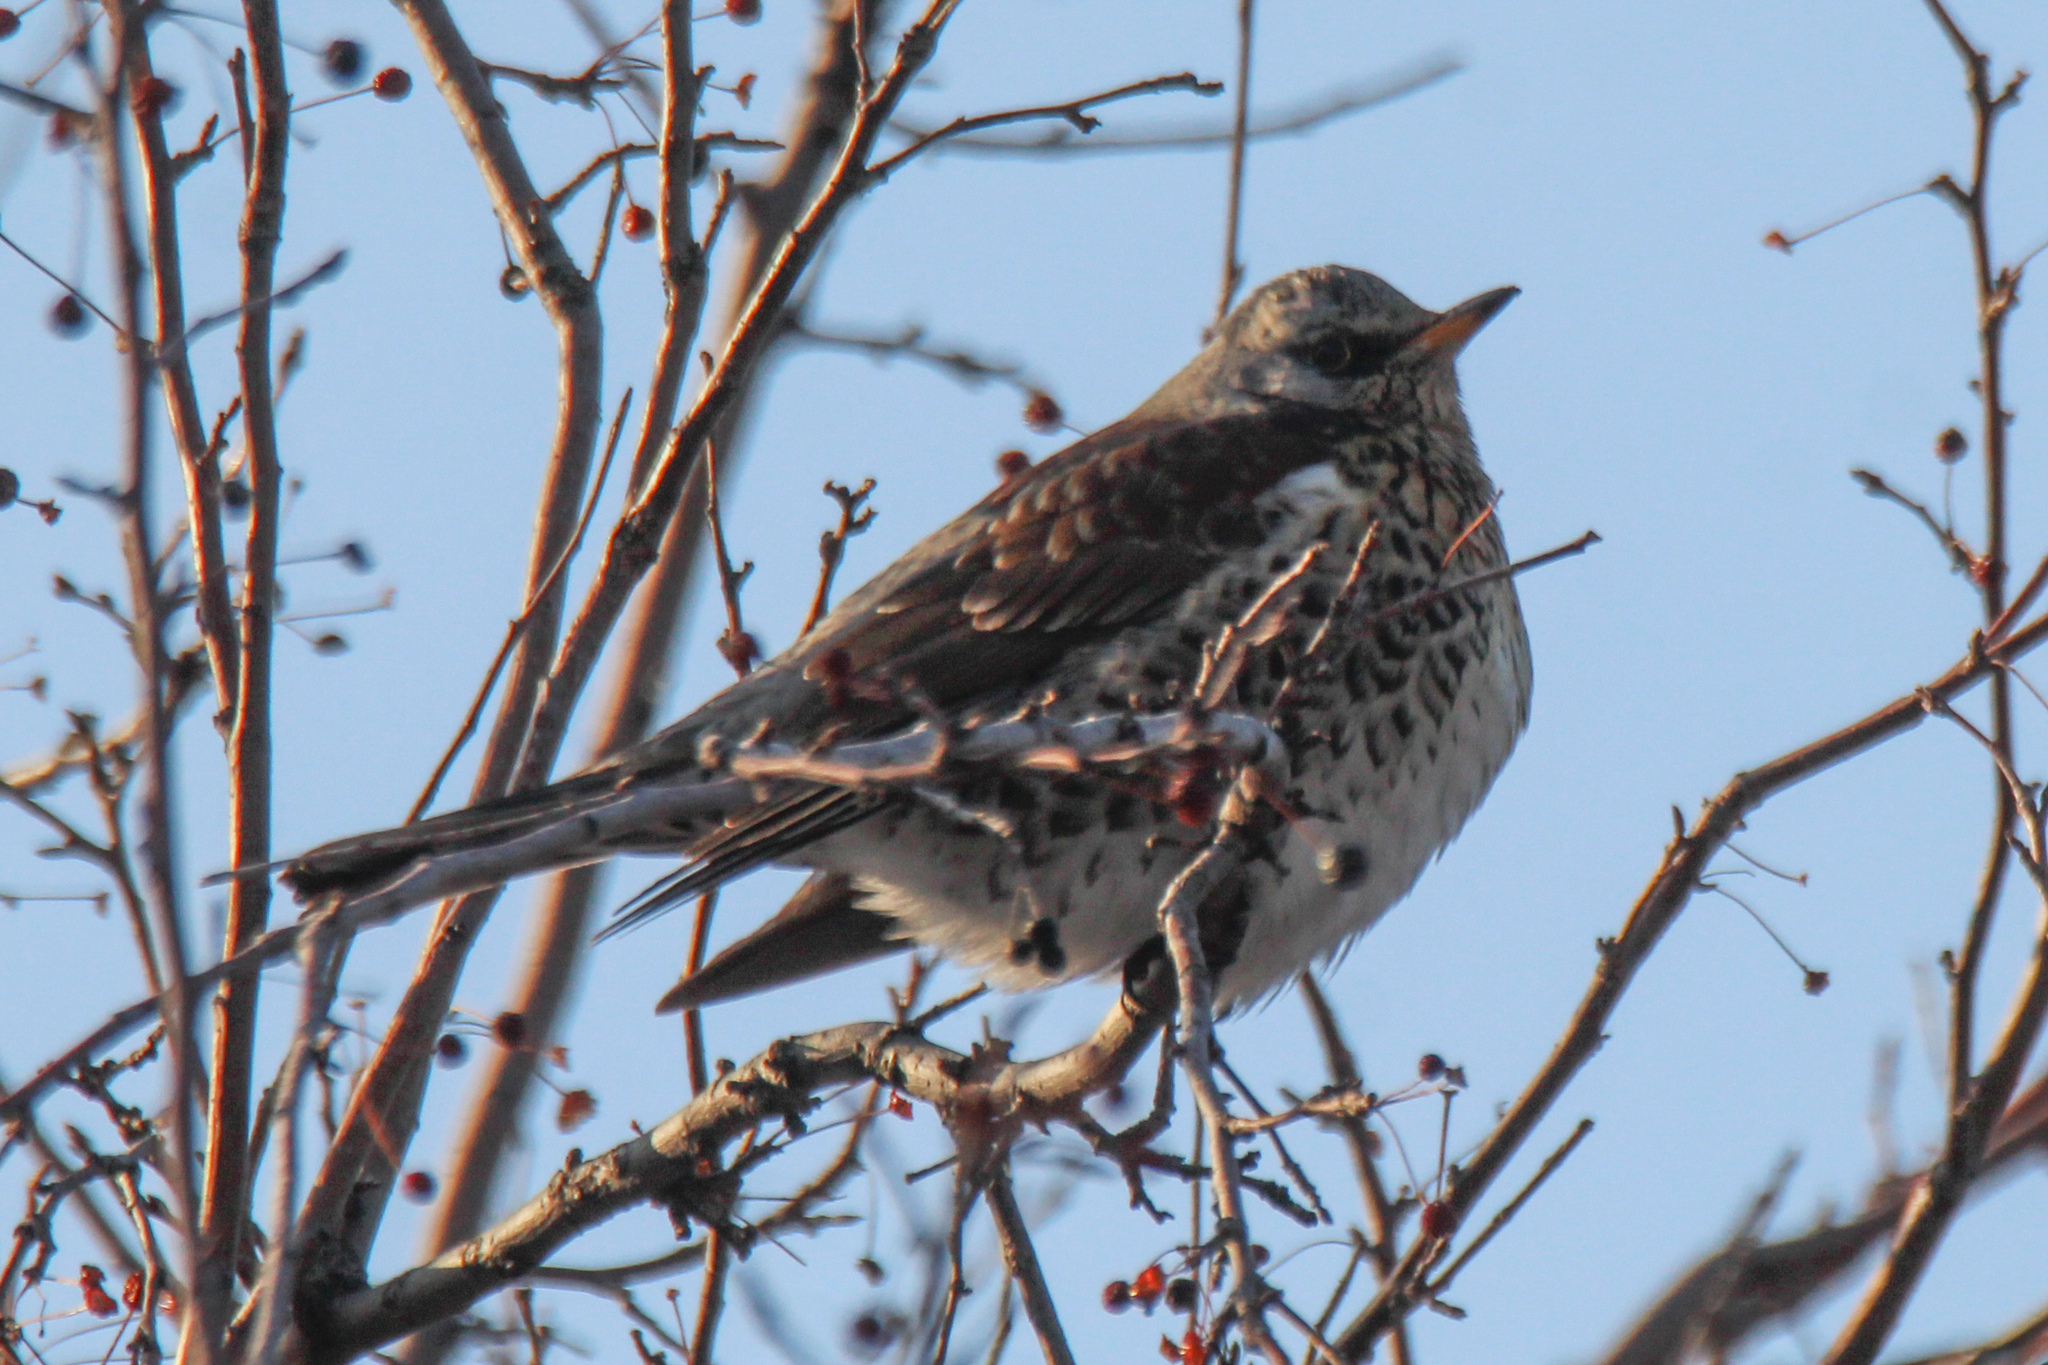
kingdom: Animalia
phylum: Chordata
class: Aves
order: Passeriformes
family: Turdidae
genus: Turdus
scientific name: Turdus pilaris
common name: Fieldfare
